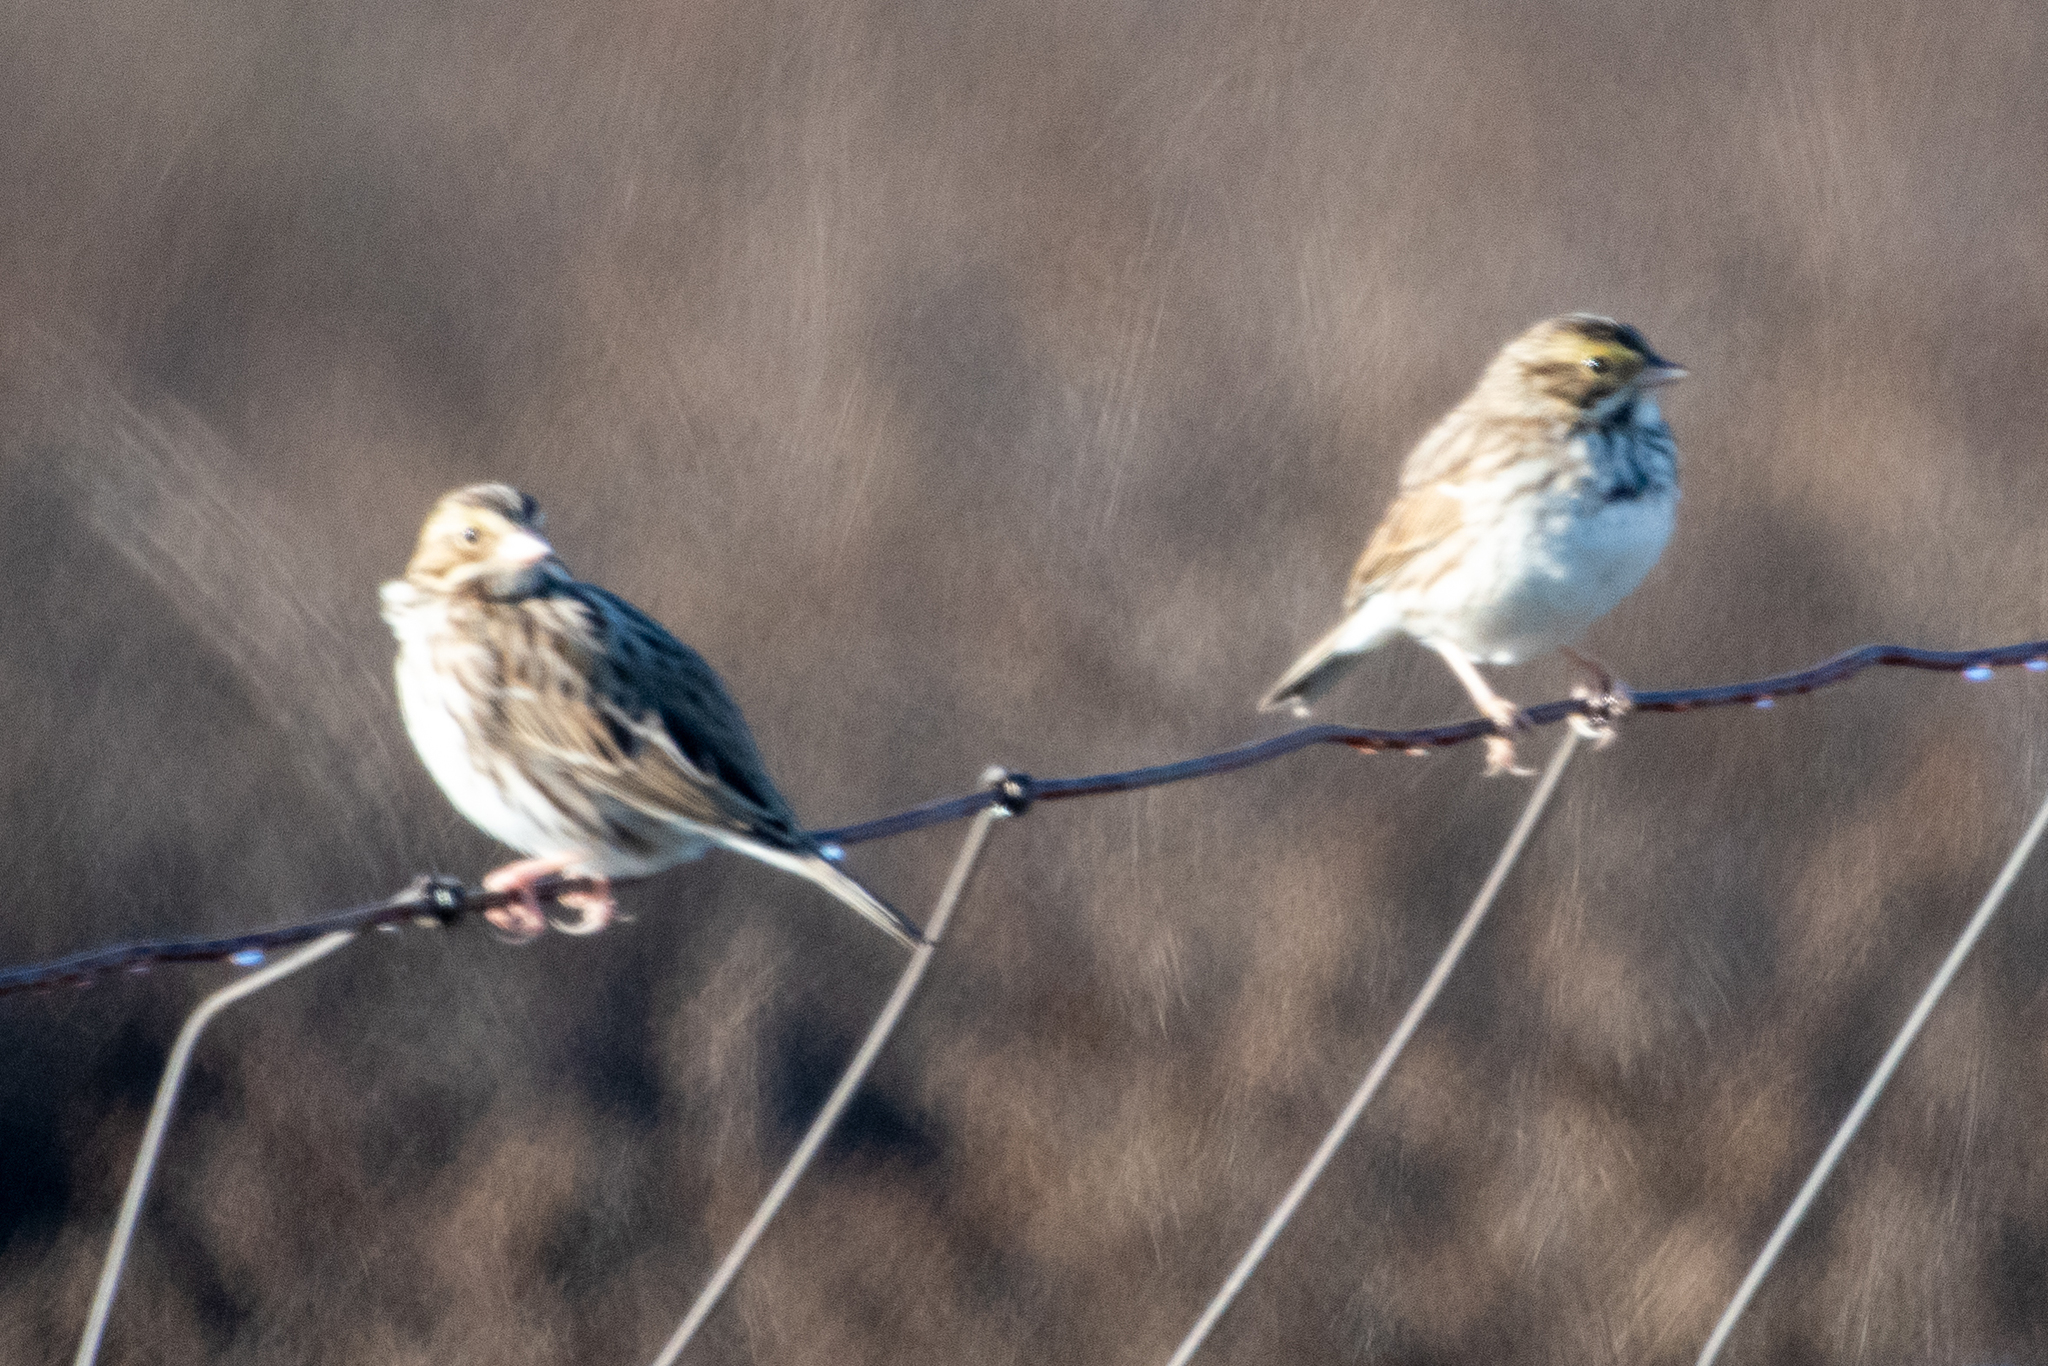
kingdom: Animalia
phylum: Chordata
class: Aves
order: Passeriformes
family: Passerellidae
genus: Passerculus
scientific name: Passerculus sandwichensis
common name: Savannah sparrow
